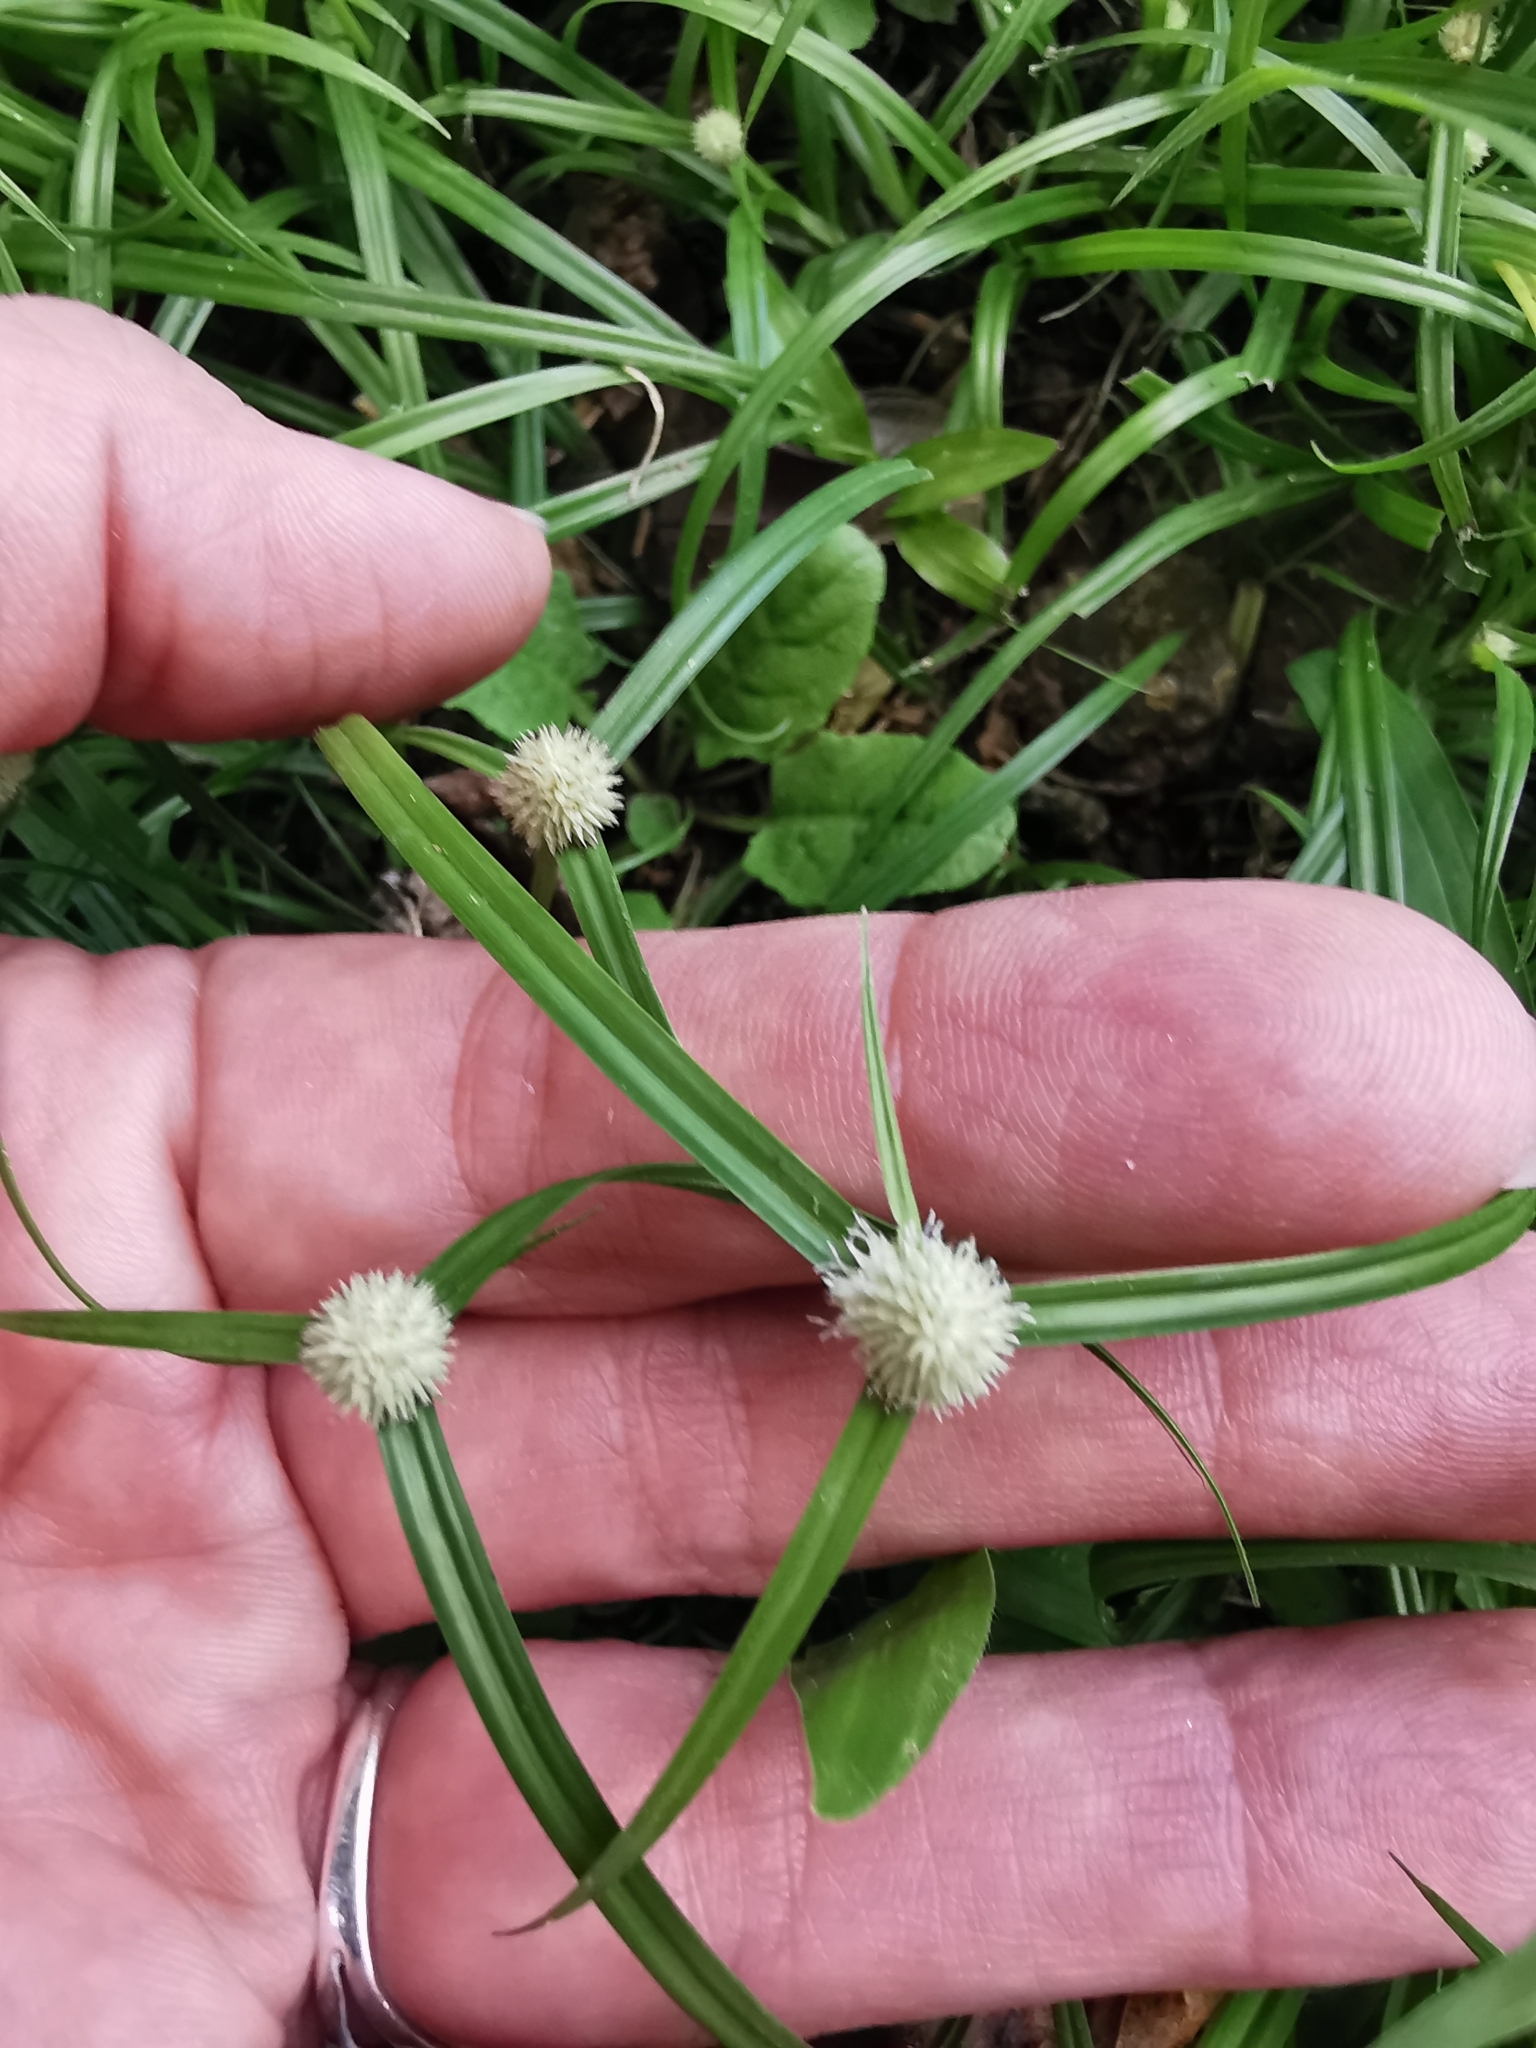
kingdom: Plantae
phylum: Tracheophyta
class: Liliopsida
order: Poales
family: Cyperaceae
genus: Cyperus
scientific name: Cyperus mindorensis
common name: Flatsedge
